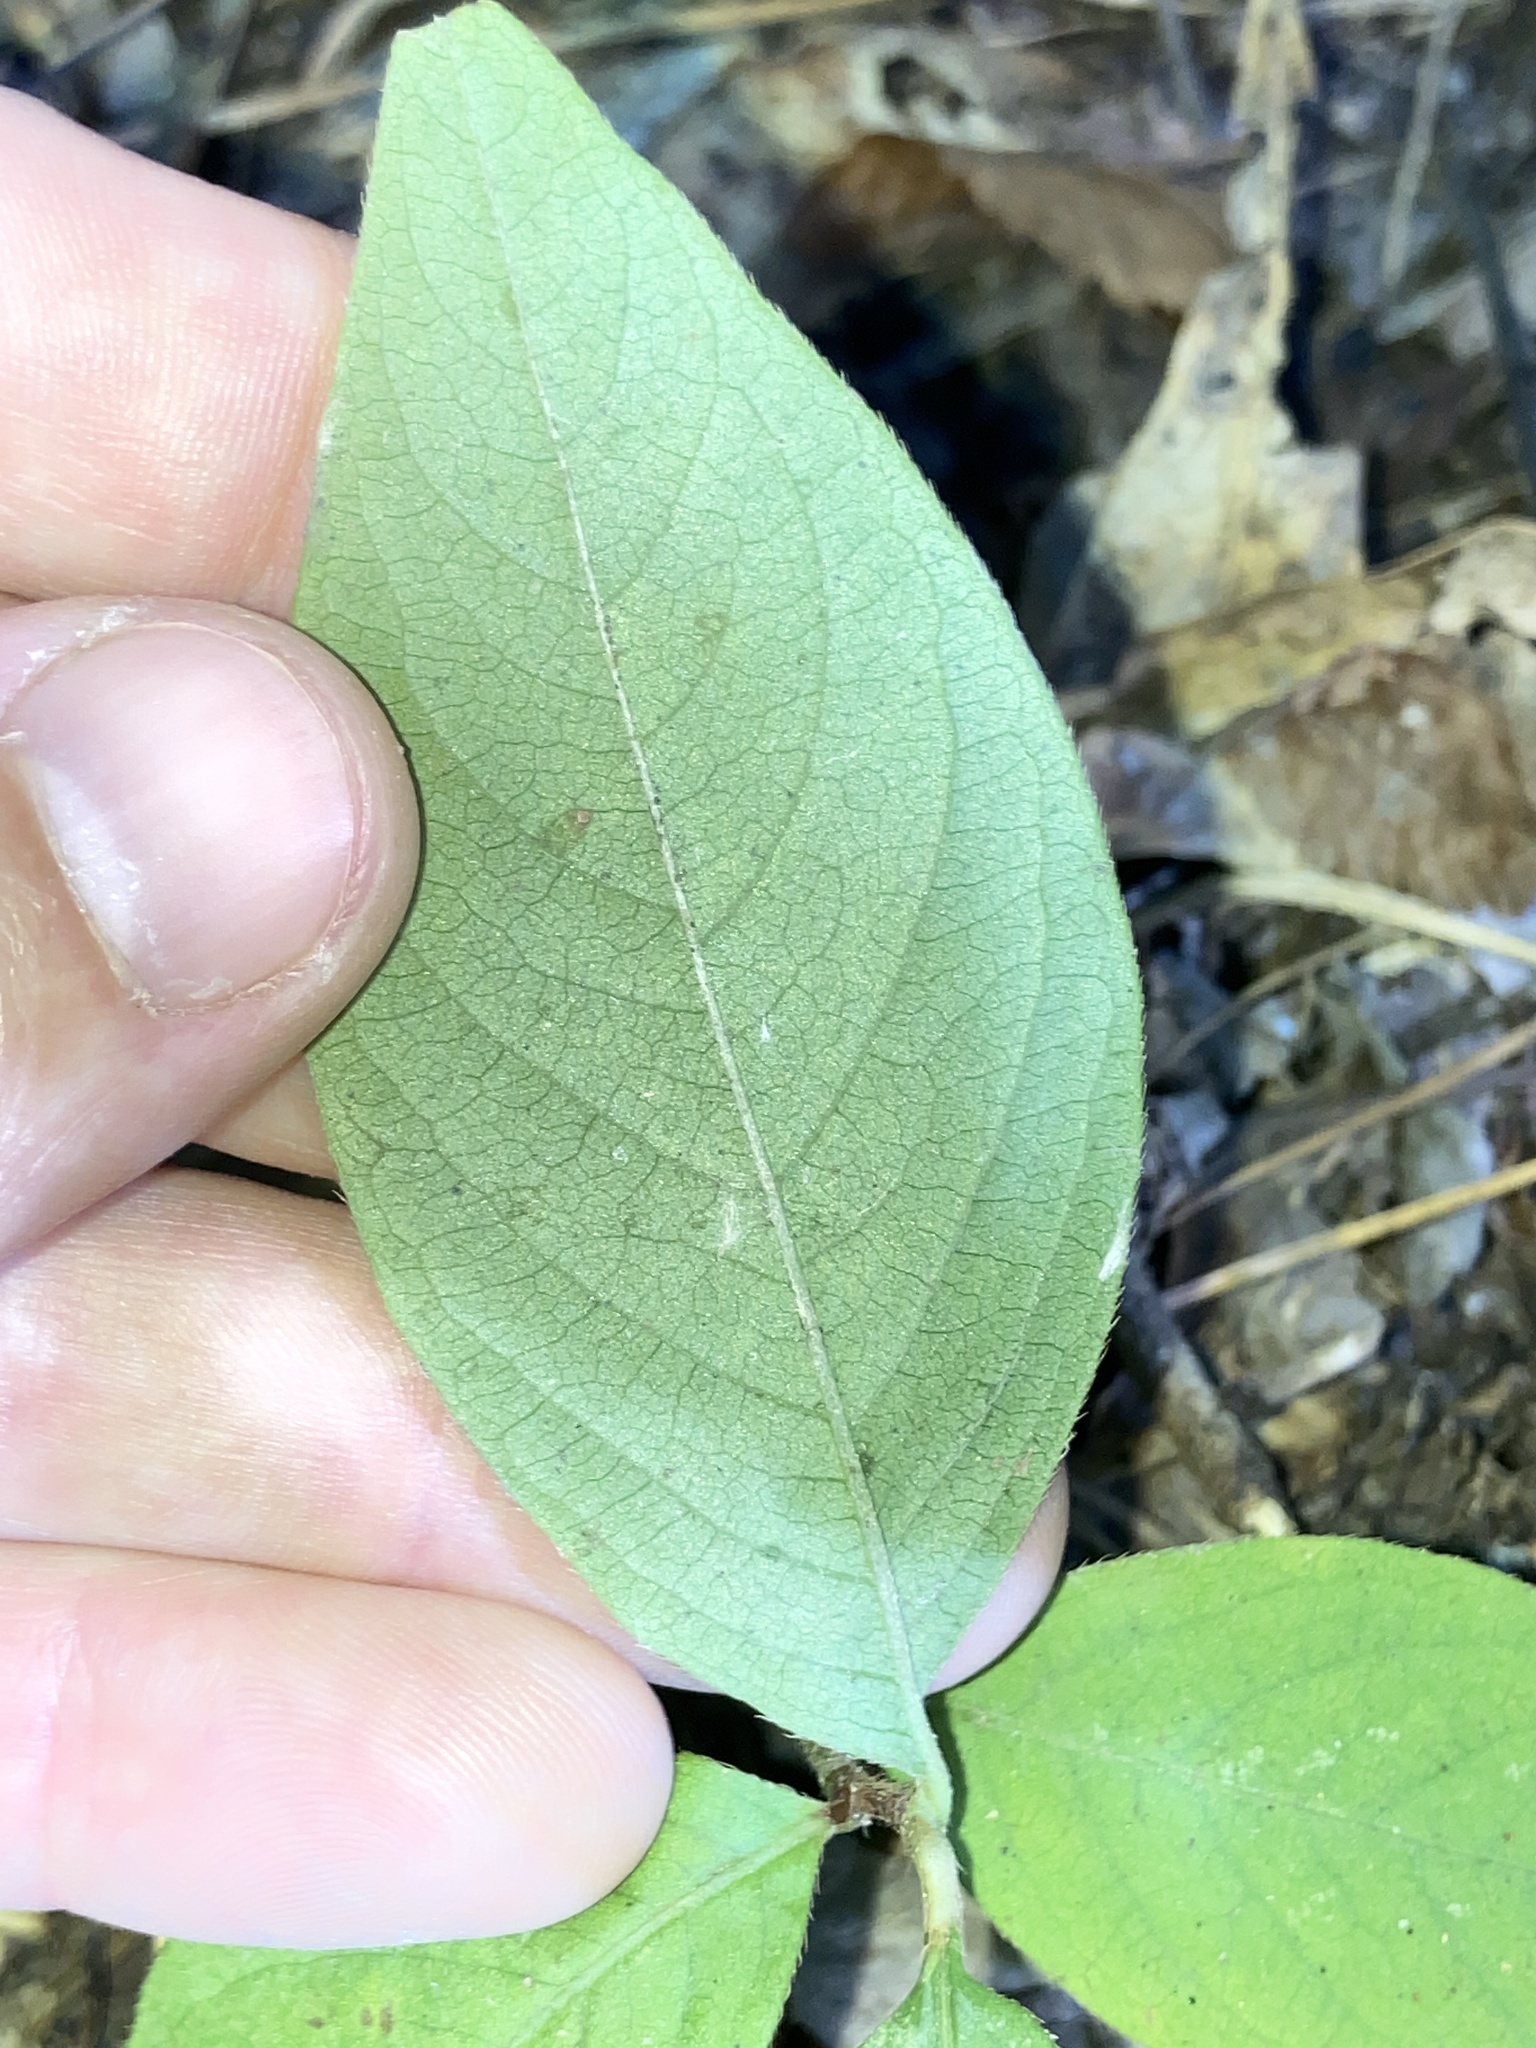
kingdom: Plantae
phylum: Tracheophyta
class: Magnoliopsida
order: Caryophyllales
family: Polygonaceae
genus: Persicaria
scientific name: Persicaria virginiana
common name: Jumpseed
